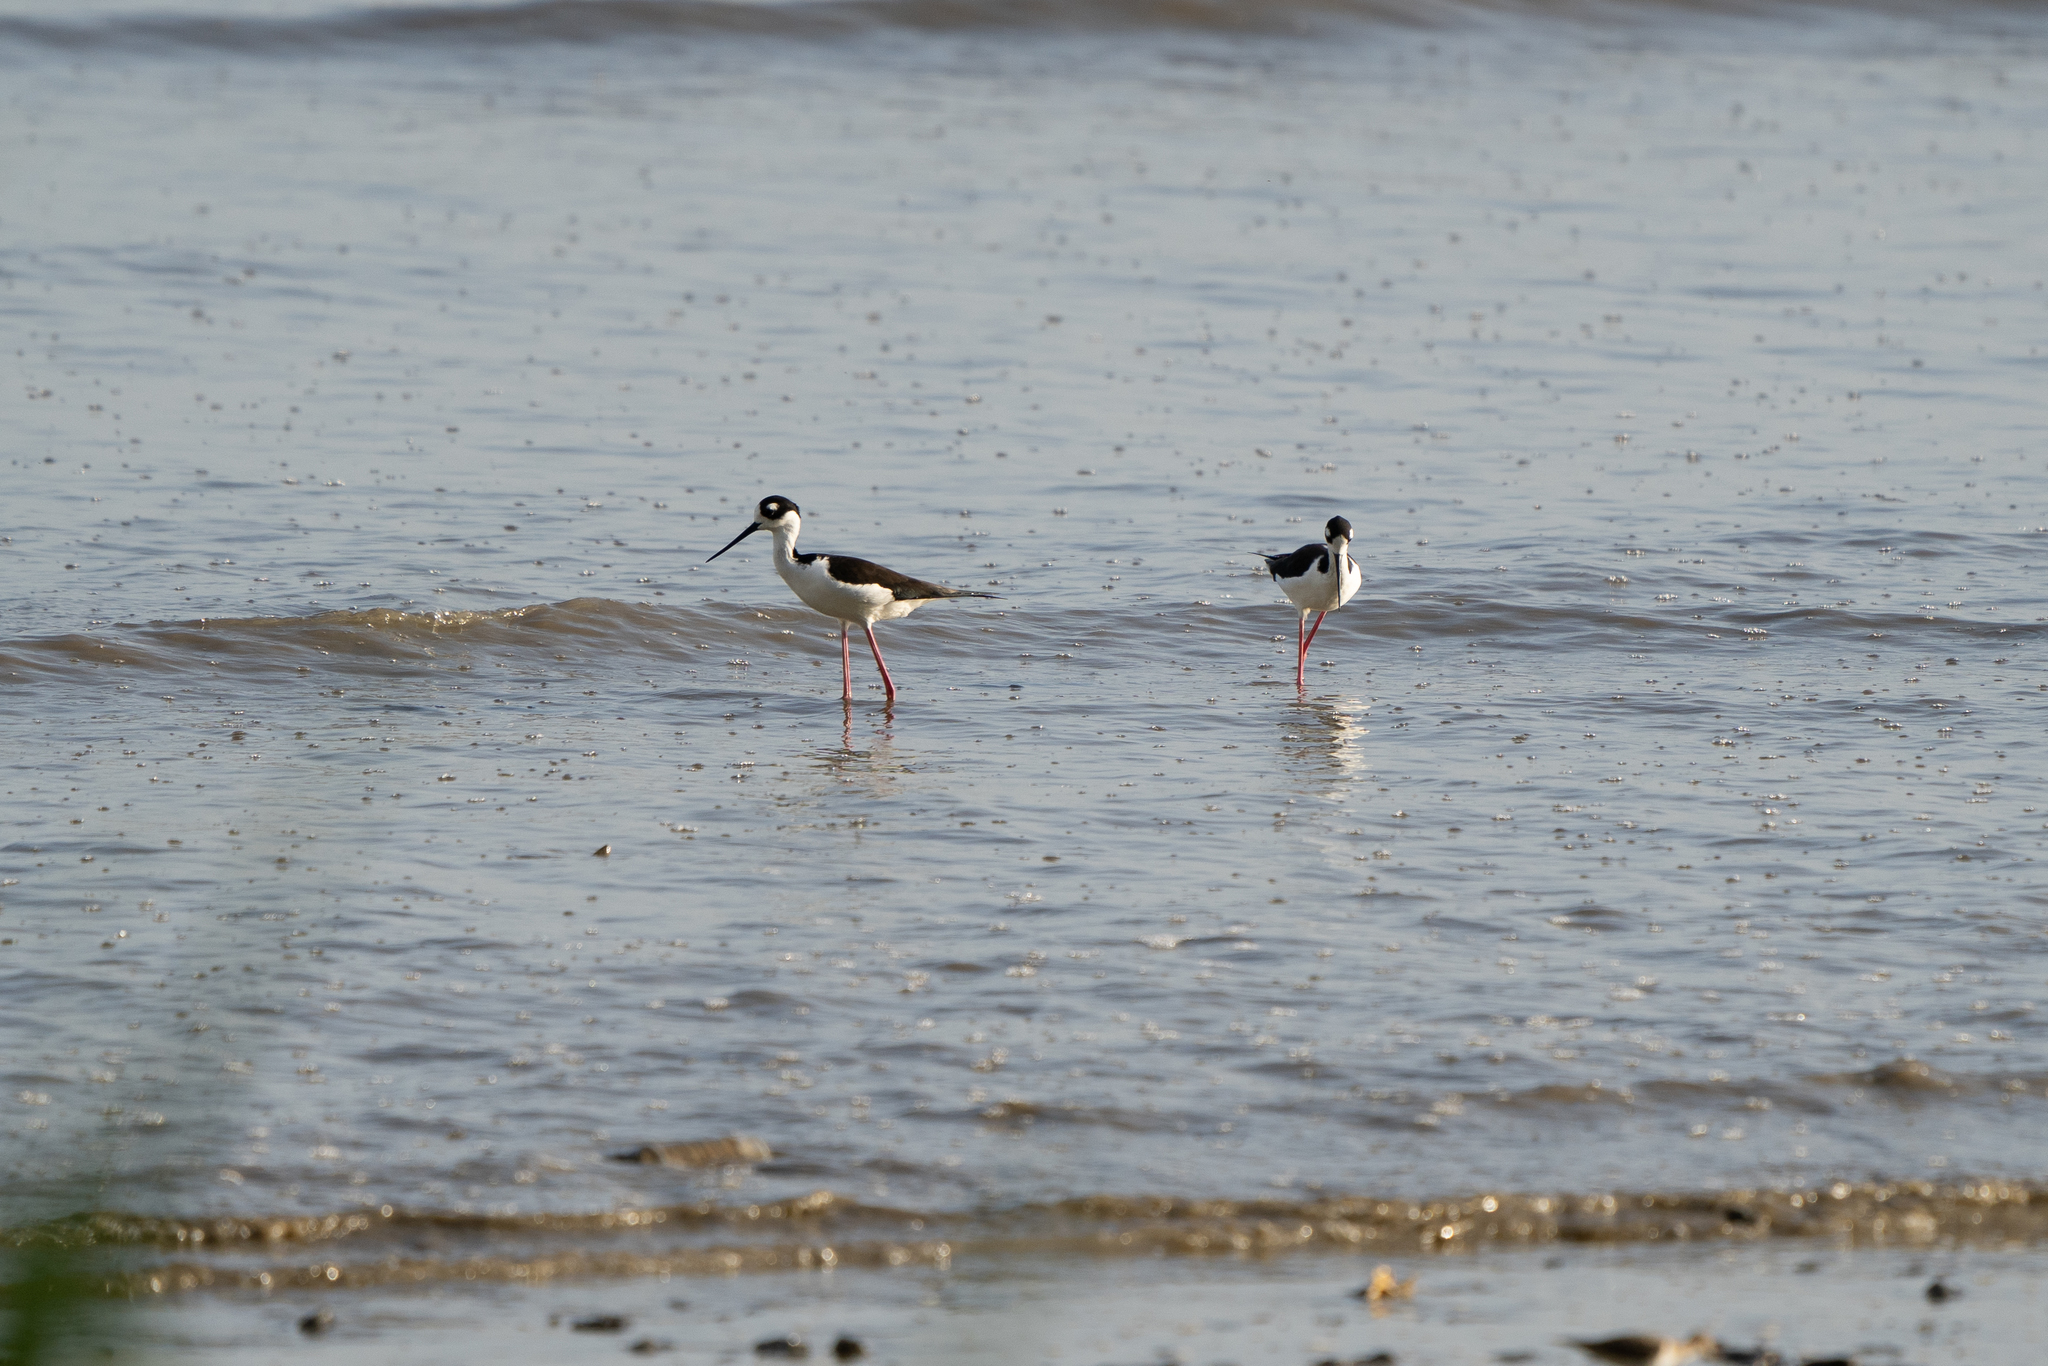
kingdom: Animalia
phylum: Chordata
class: Aves
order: Charadriiformes
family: Recurvirostridae
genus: Himantopus
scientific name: Himantopus mexicanus
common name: Black-necked stilt
